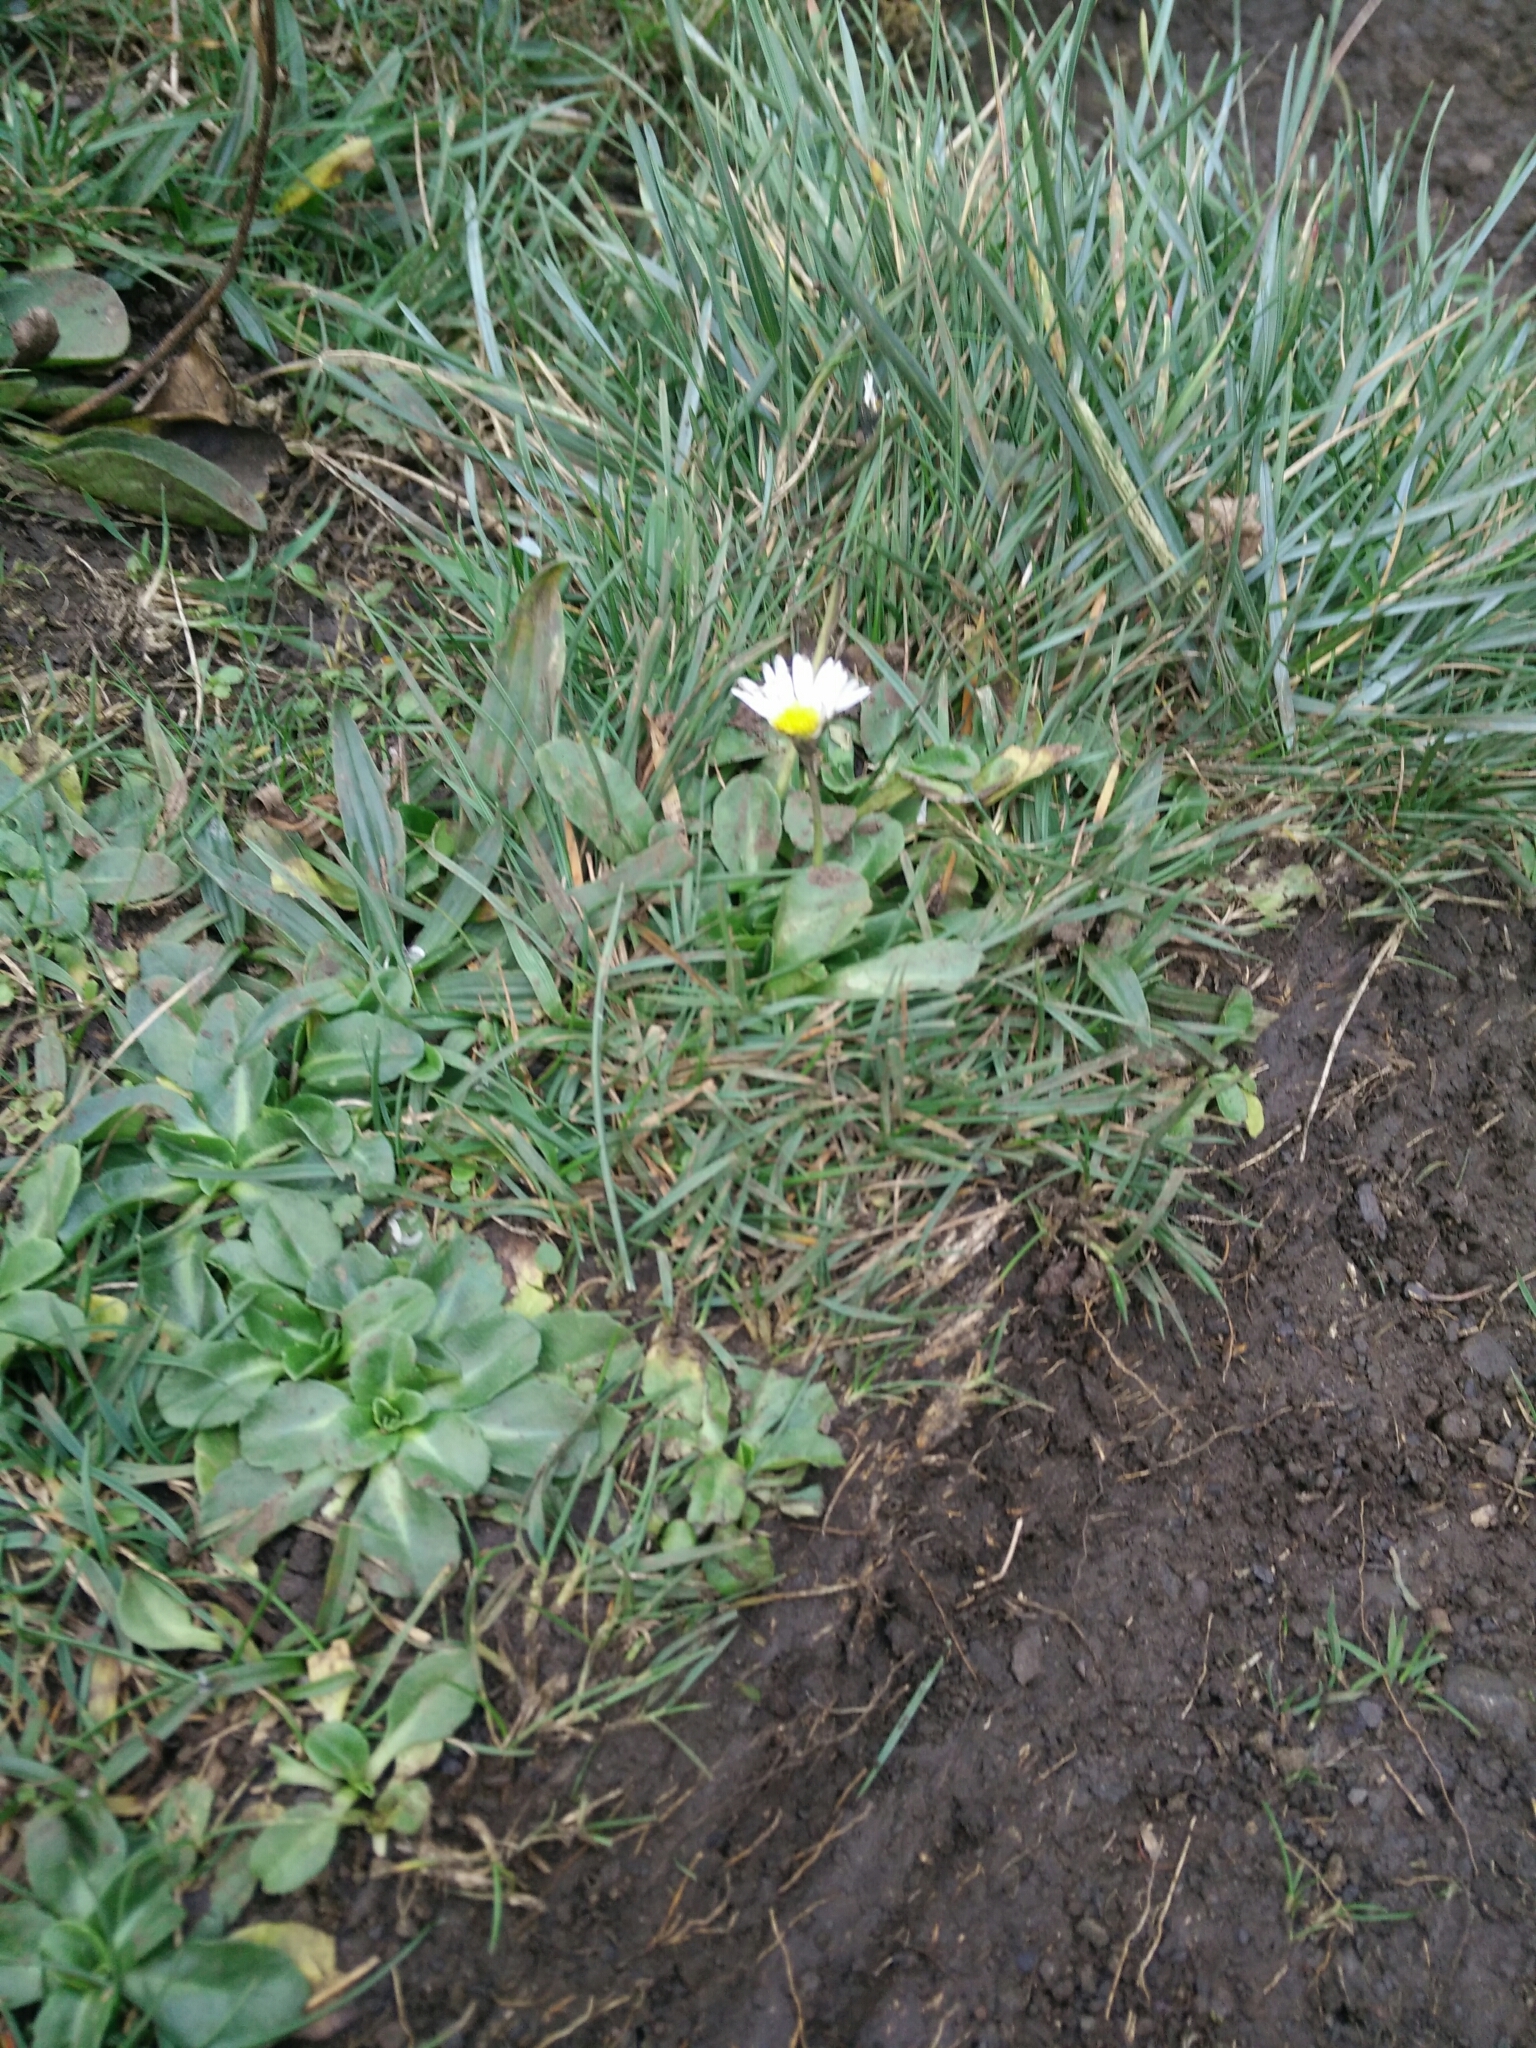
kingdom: Plantae
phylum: Tracheophyta
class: Magnoliopsida
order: Asterales
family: Asteraceae
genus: Bellis
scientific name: Bellis perennis
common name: Lawndaisy
